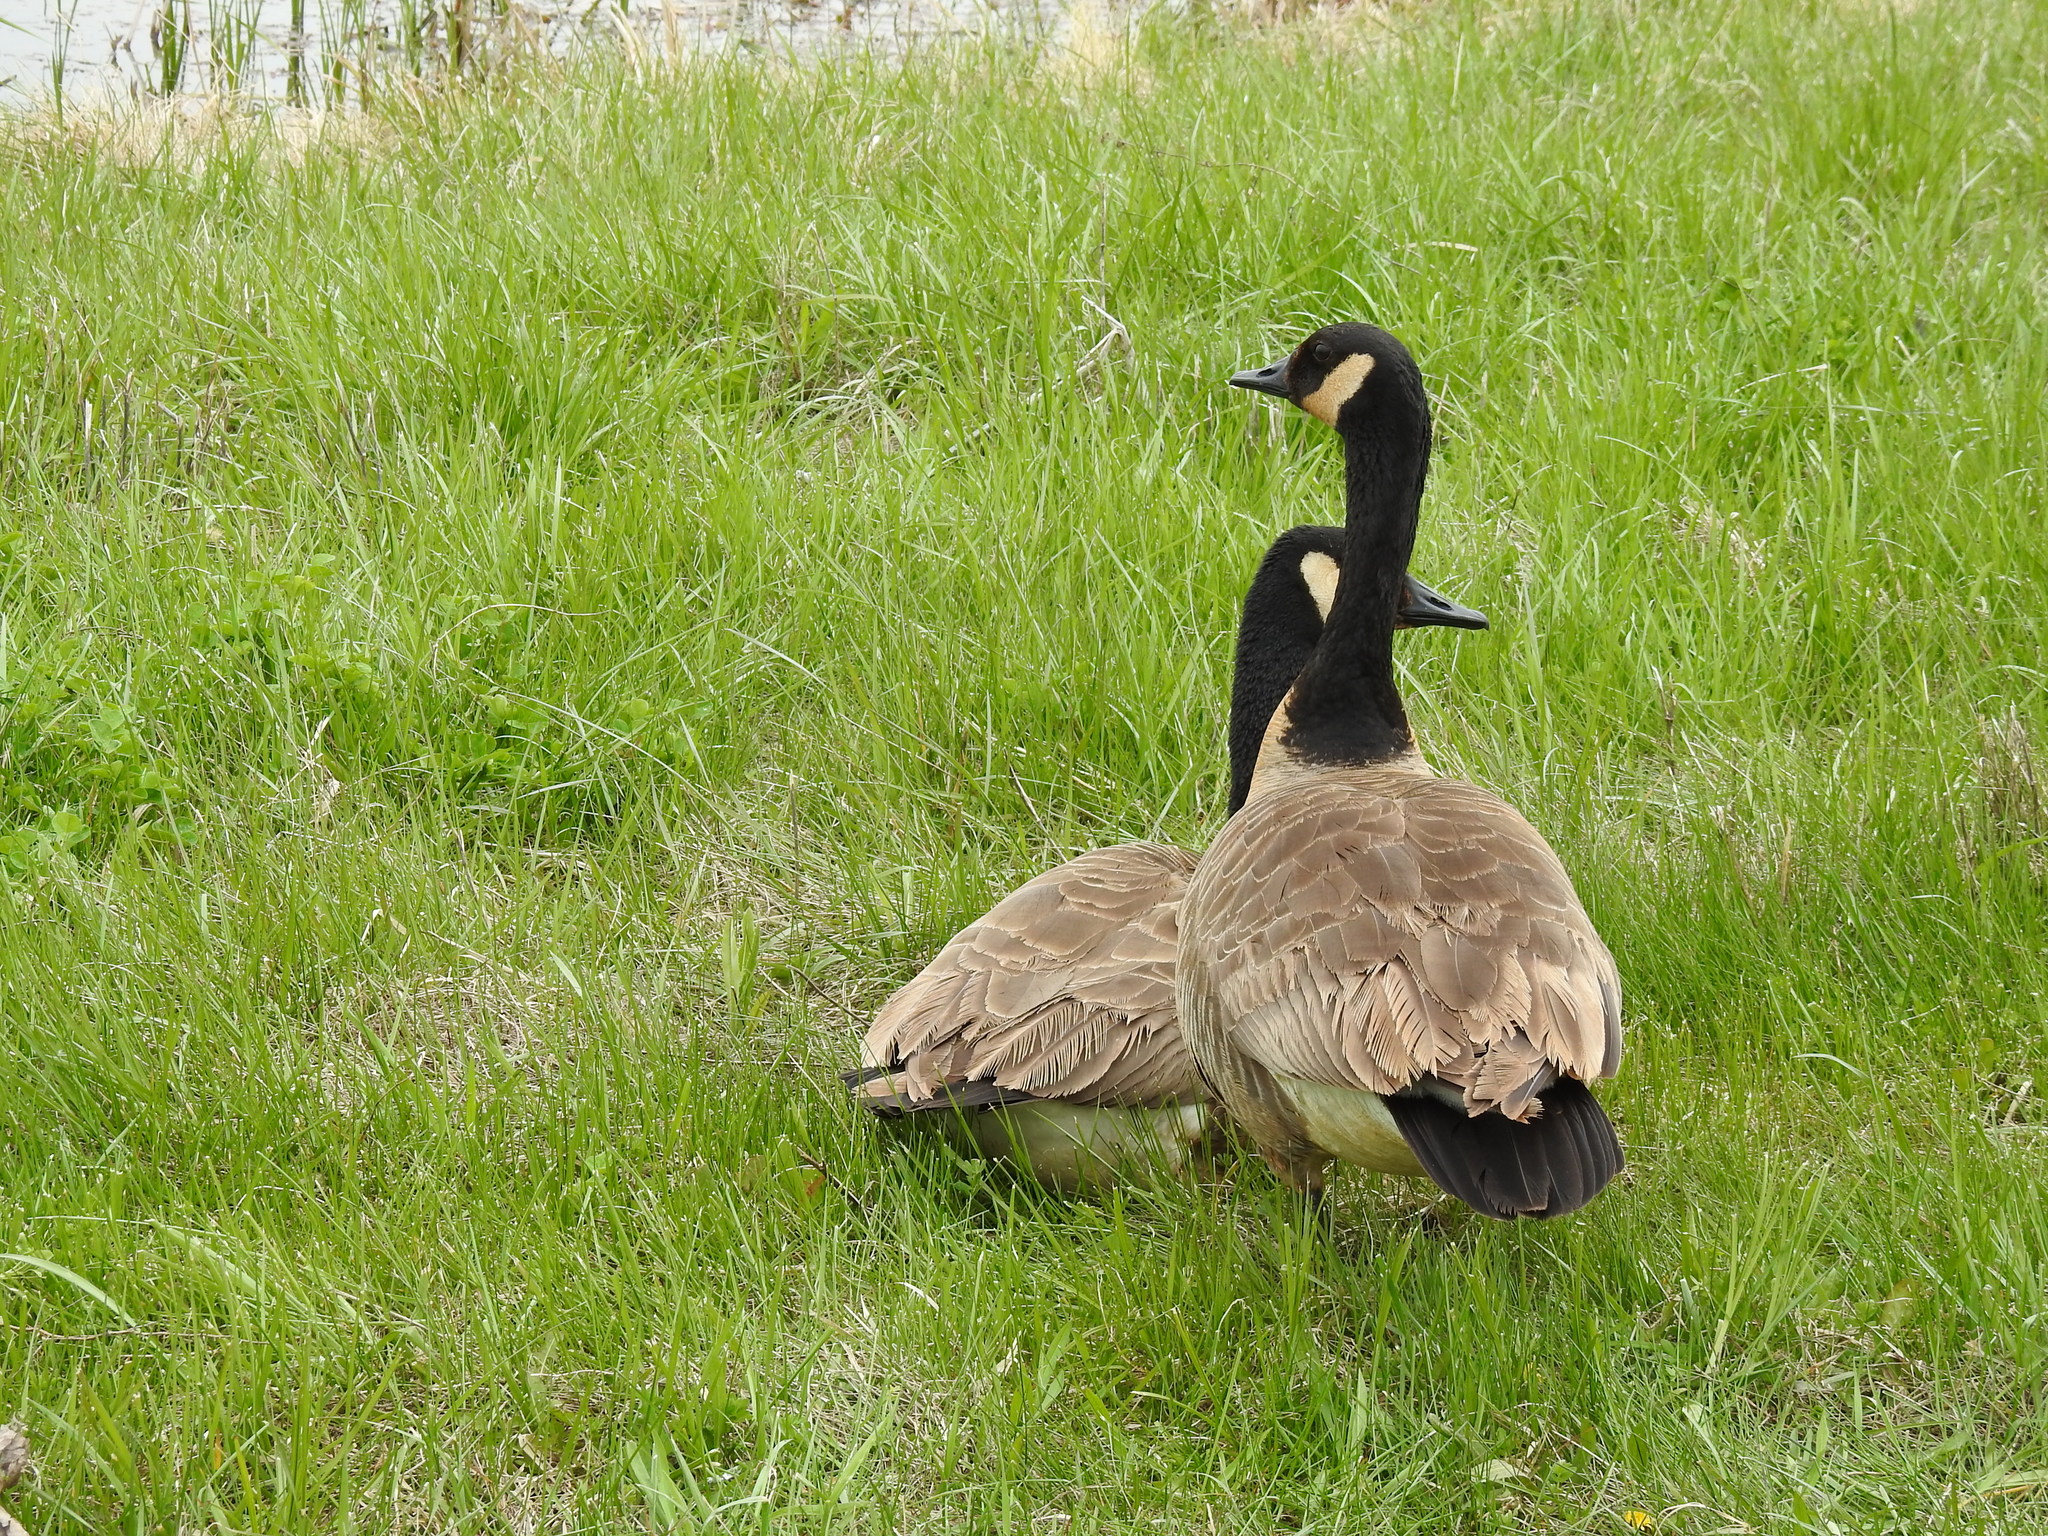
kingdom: Animalia
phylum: Chordata
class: Aves
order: Anseriformes
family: Anatidae
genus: Branta
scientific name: Branta canadensis
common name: Canada goose
